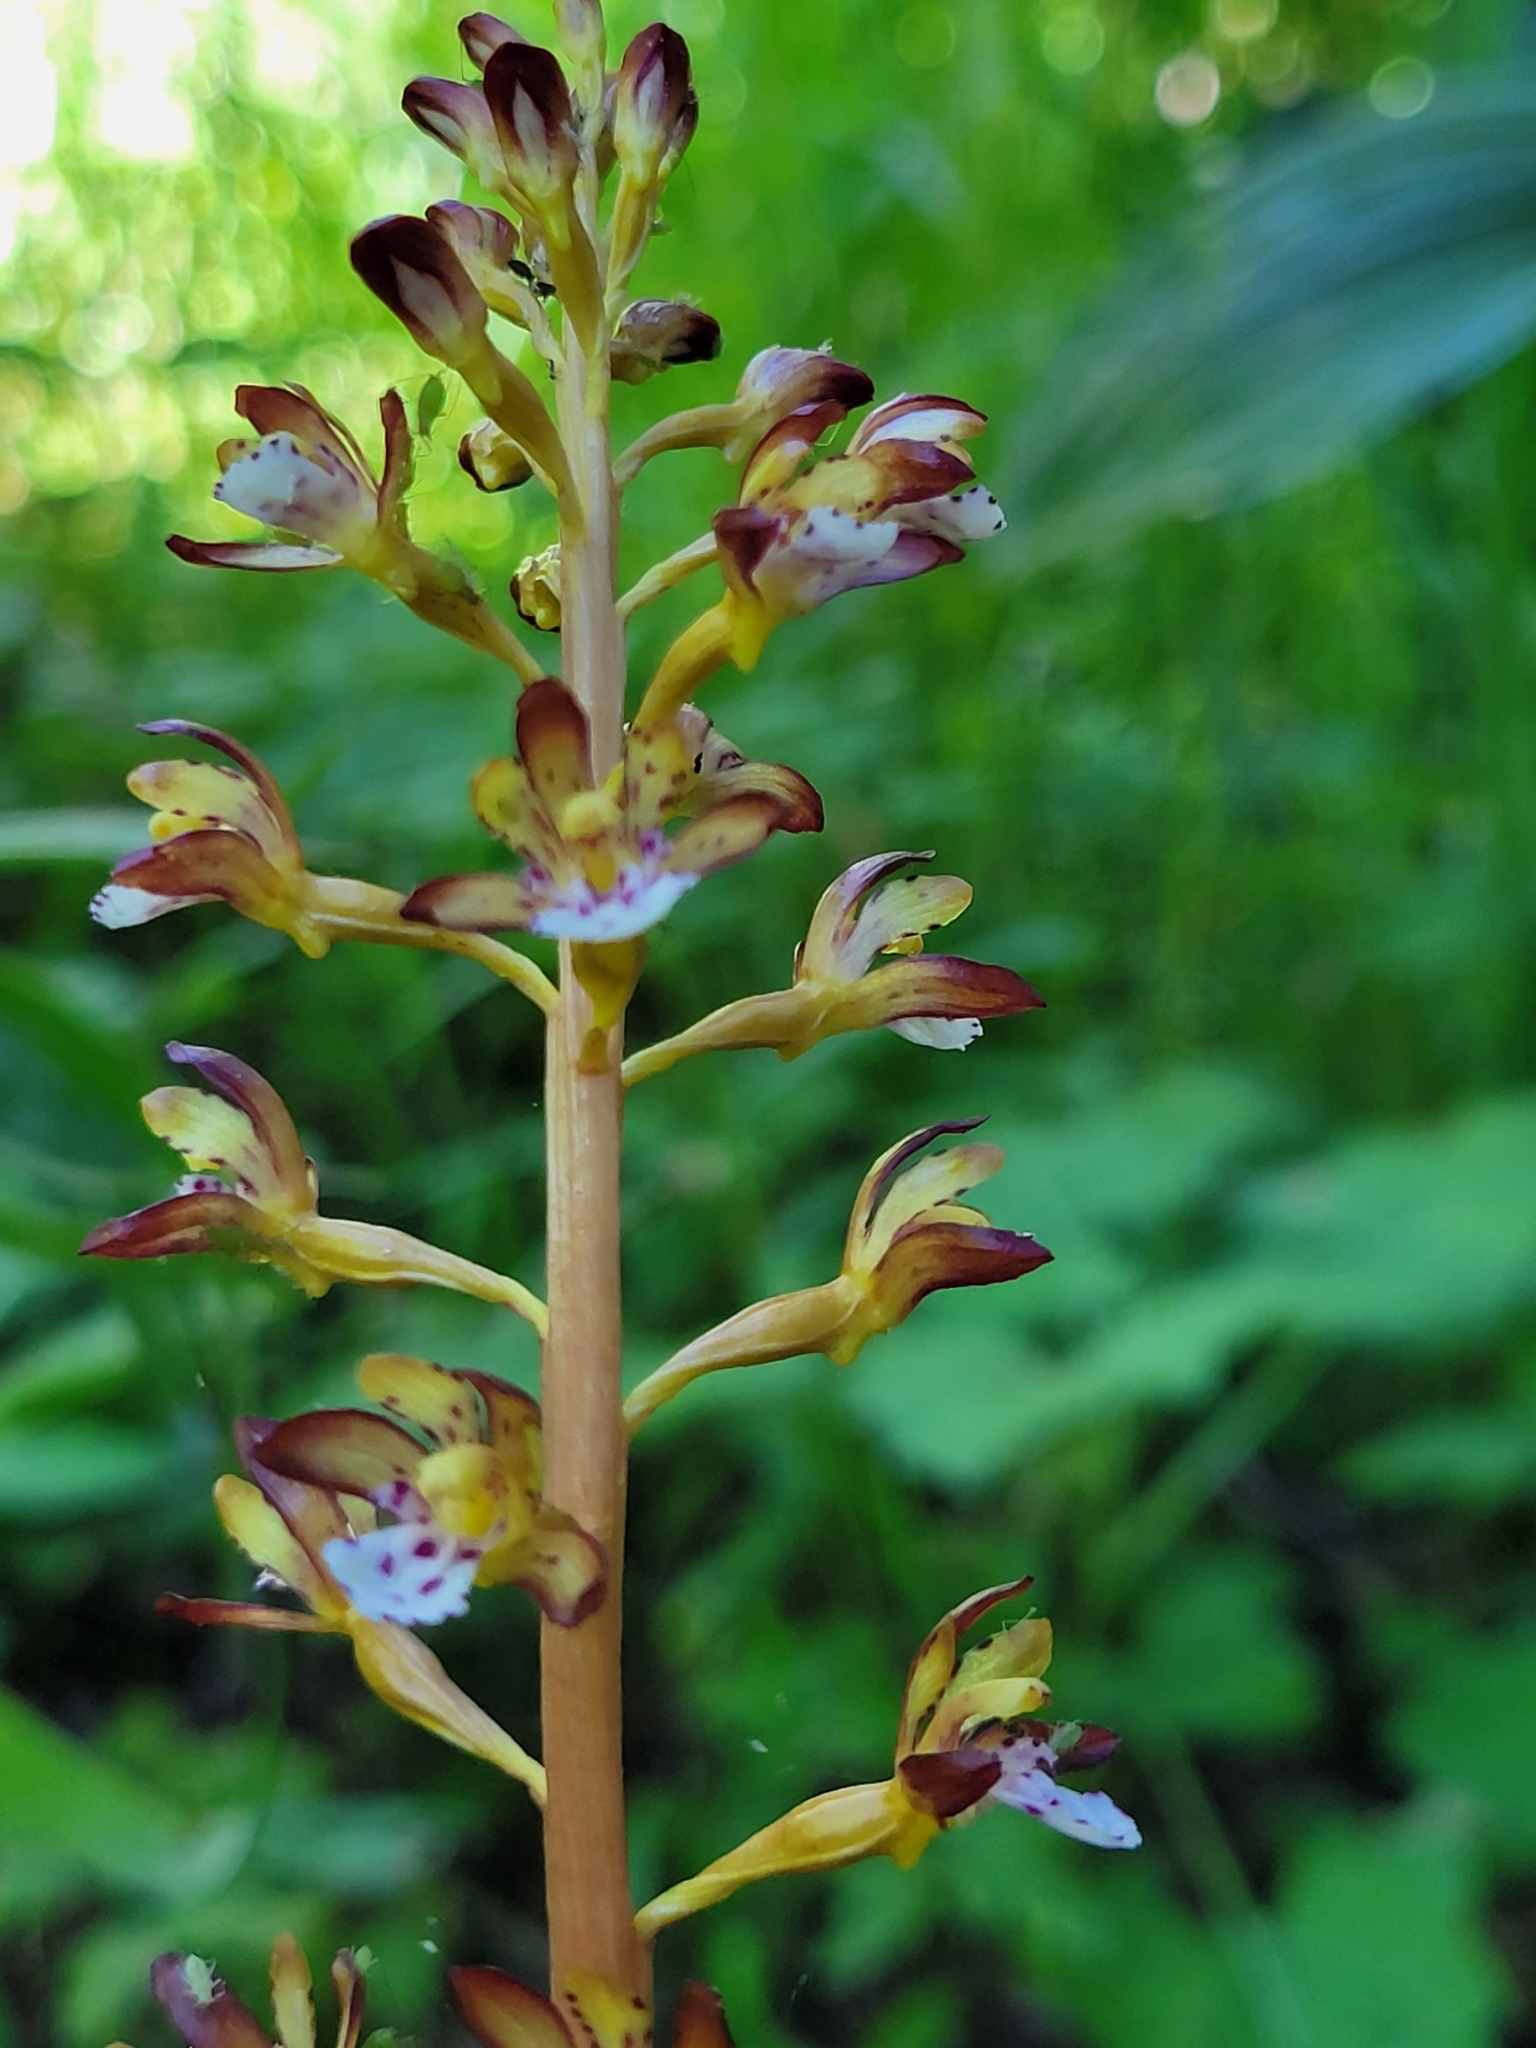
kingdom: Plantae
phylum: Tracheophyta
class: Liliopsida
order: Asparagales
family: Orchidaceae
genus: Corallorhiza
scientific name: Corallorhiza maculata
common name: Spotted coralroot
